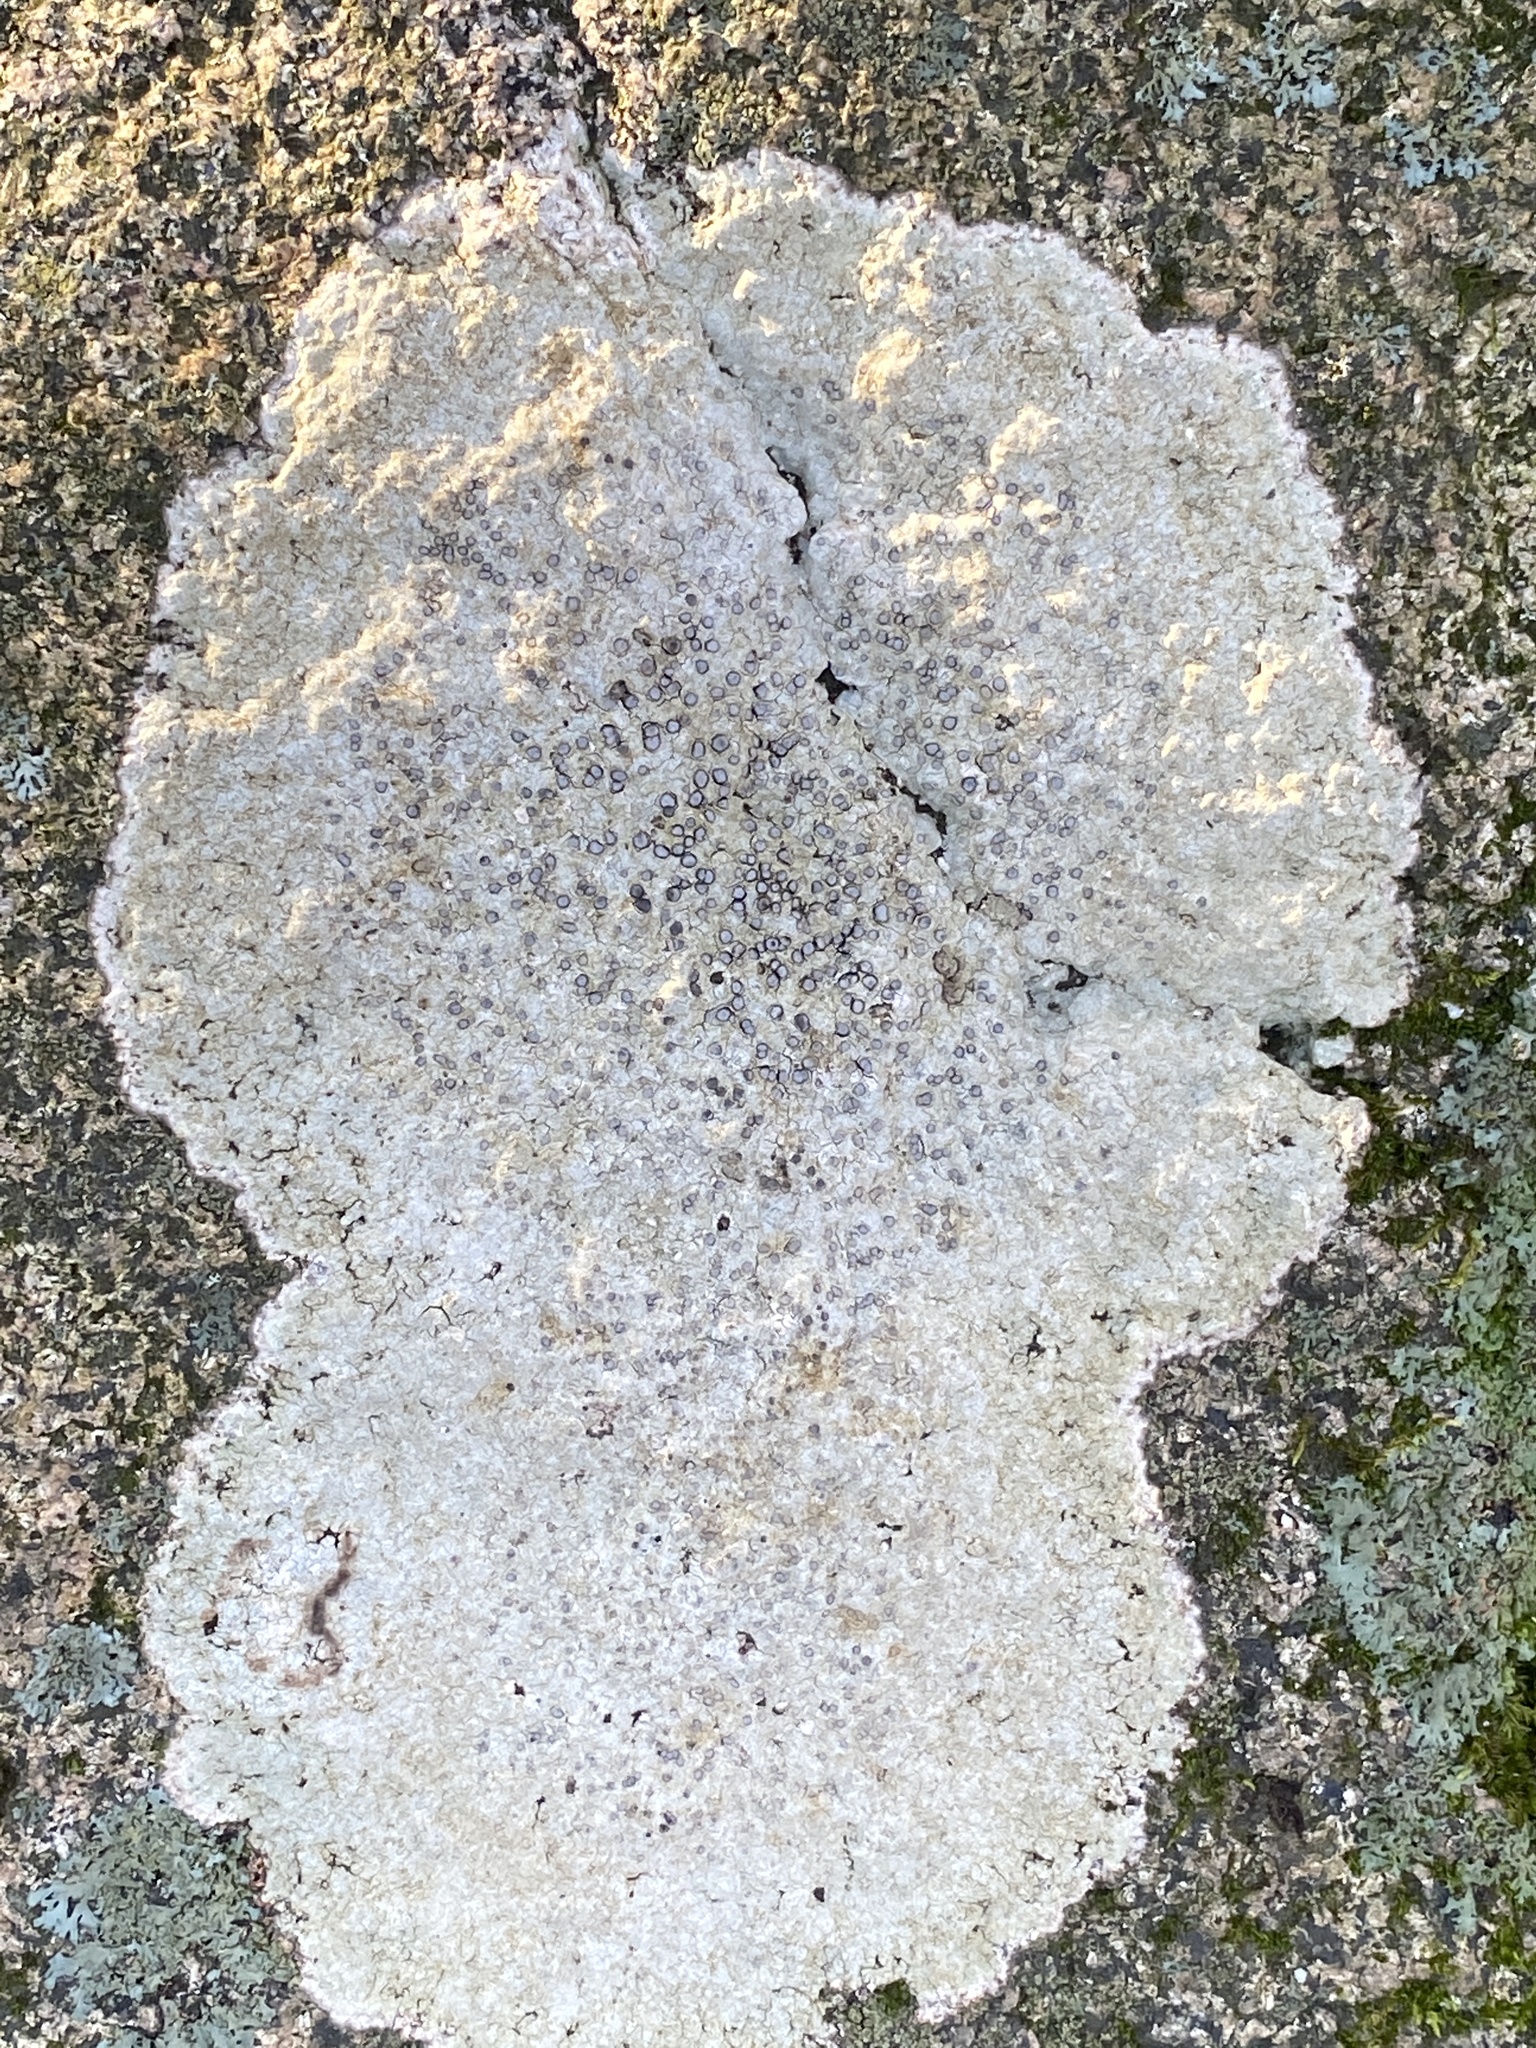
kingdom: Fungi
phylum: Ascomycota
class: Lecanoromycetes
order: Lecideales
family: Lecideaceae
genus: Porpidia
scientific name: Porpidia albocaerulescens
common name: Smokey-eyed boulder lichen
